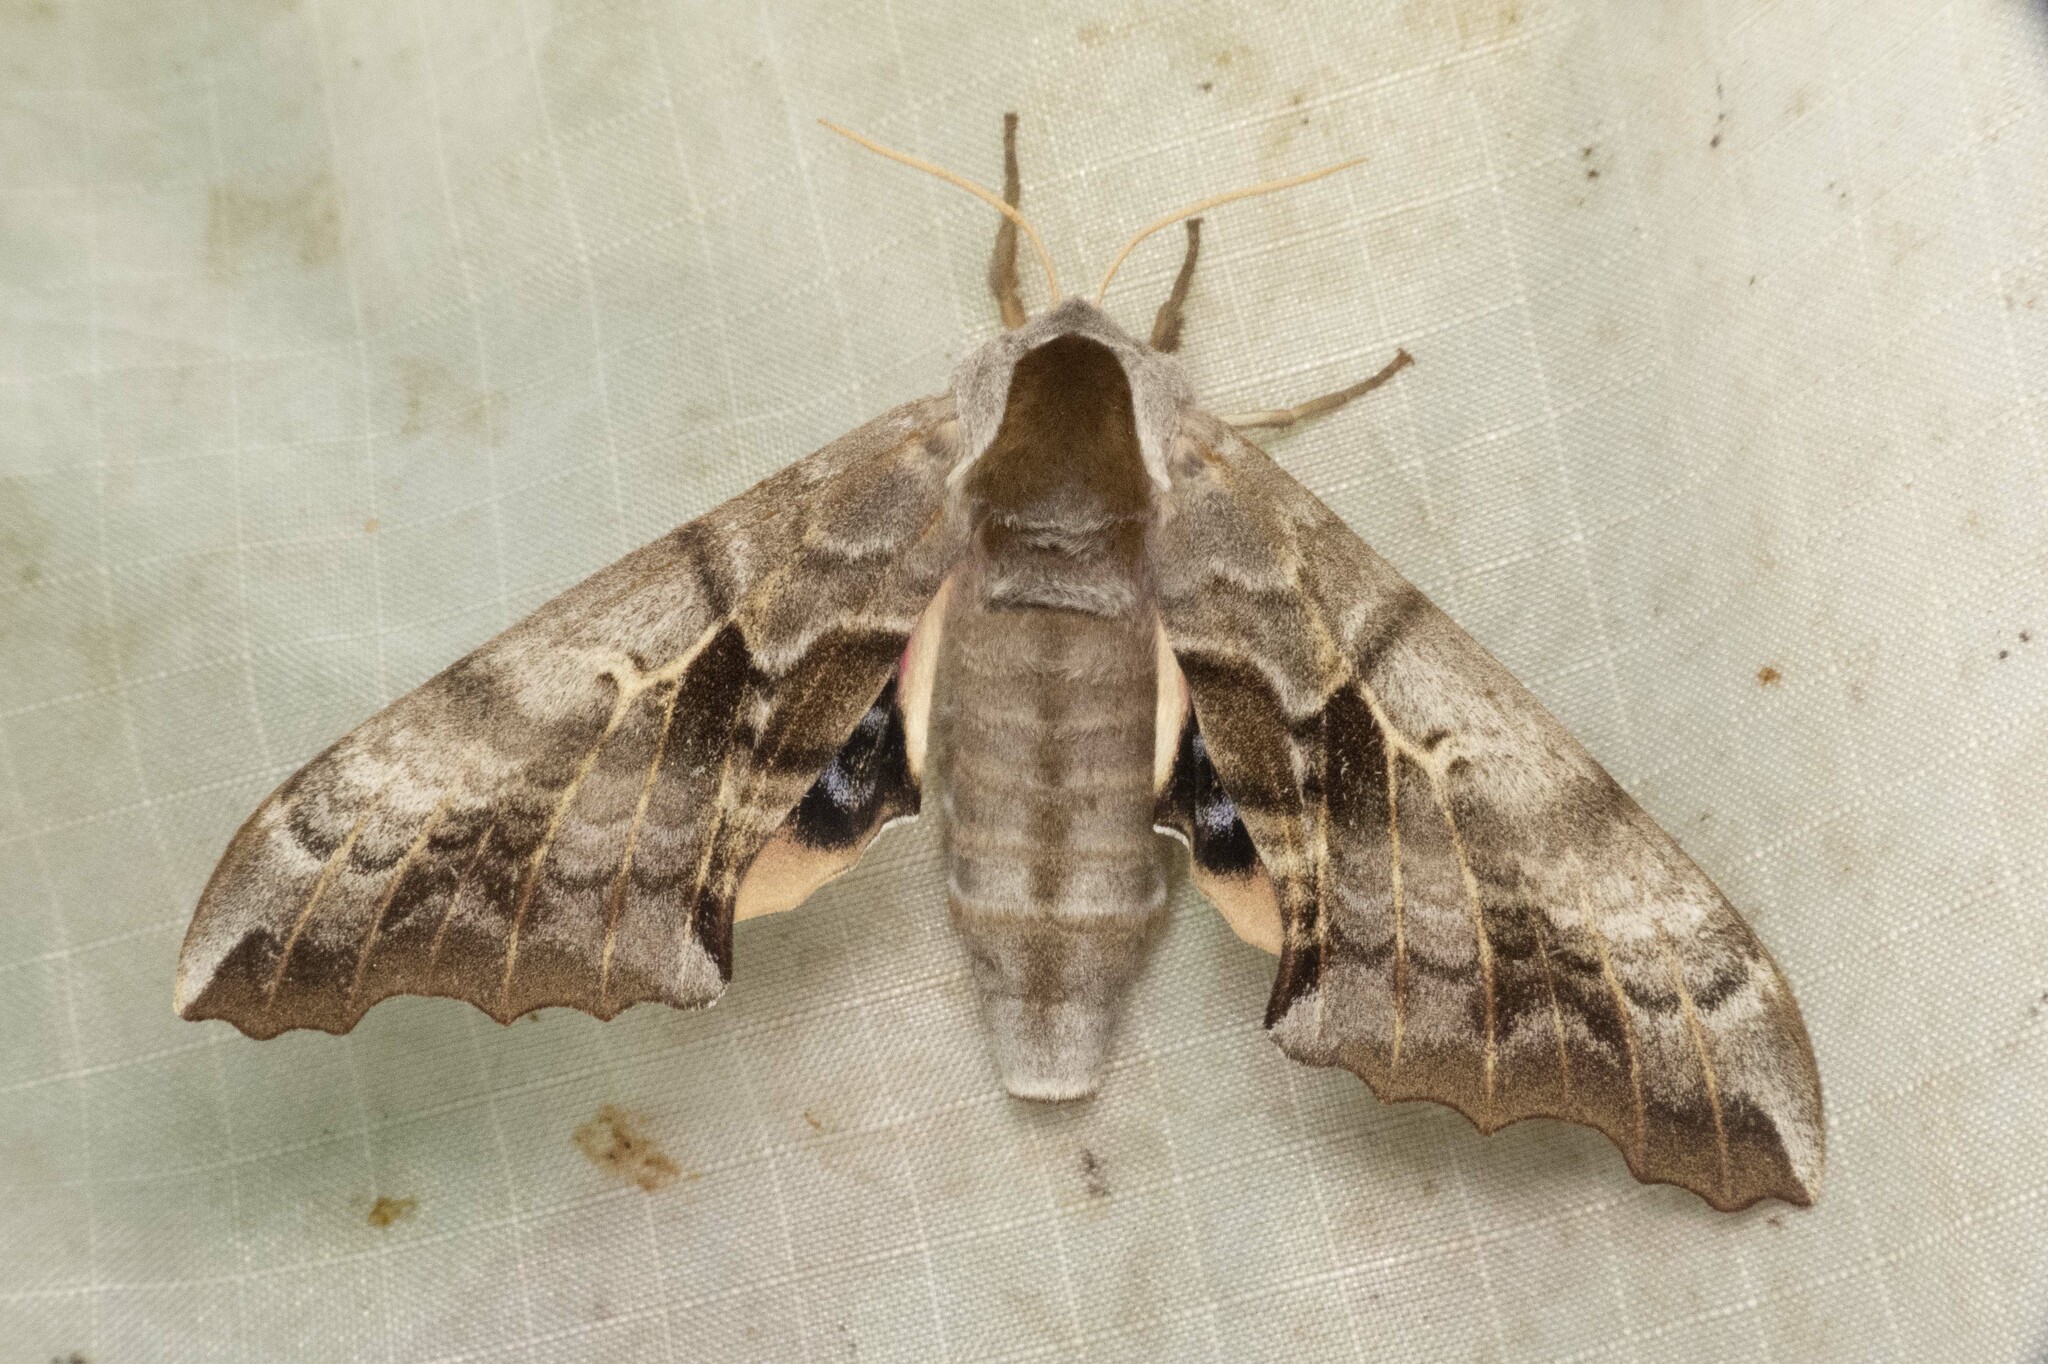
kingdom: Animalia
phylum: Arthropoda
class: Insecta
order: Lepidoptera
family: Sphingidae
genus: Smerinthus
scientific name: Smerinthus cerisyi
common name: Cerisy's sphinx moth
